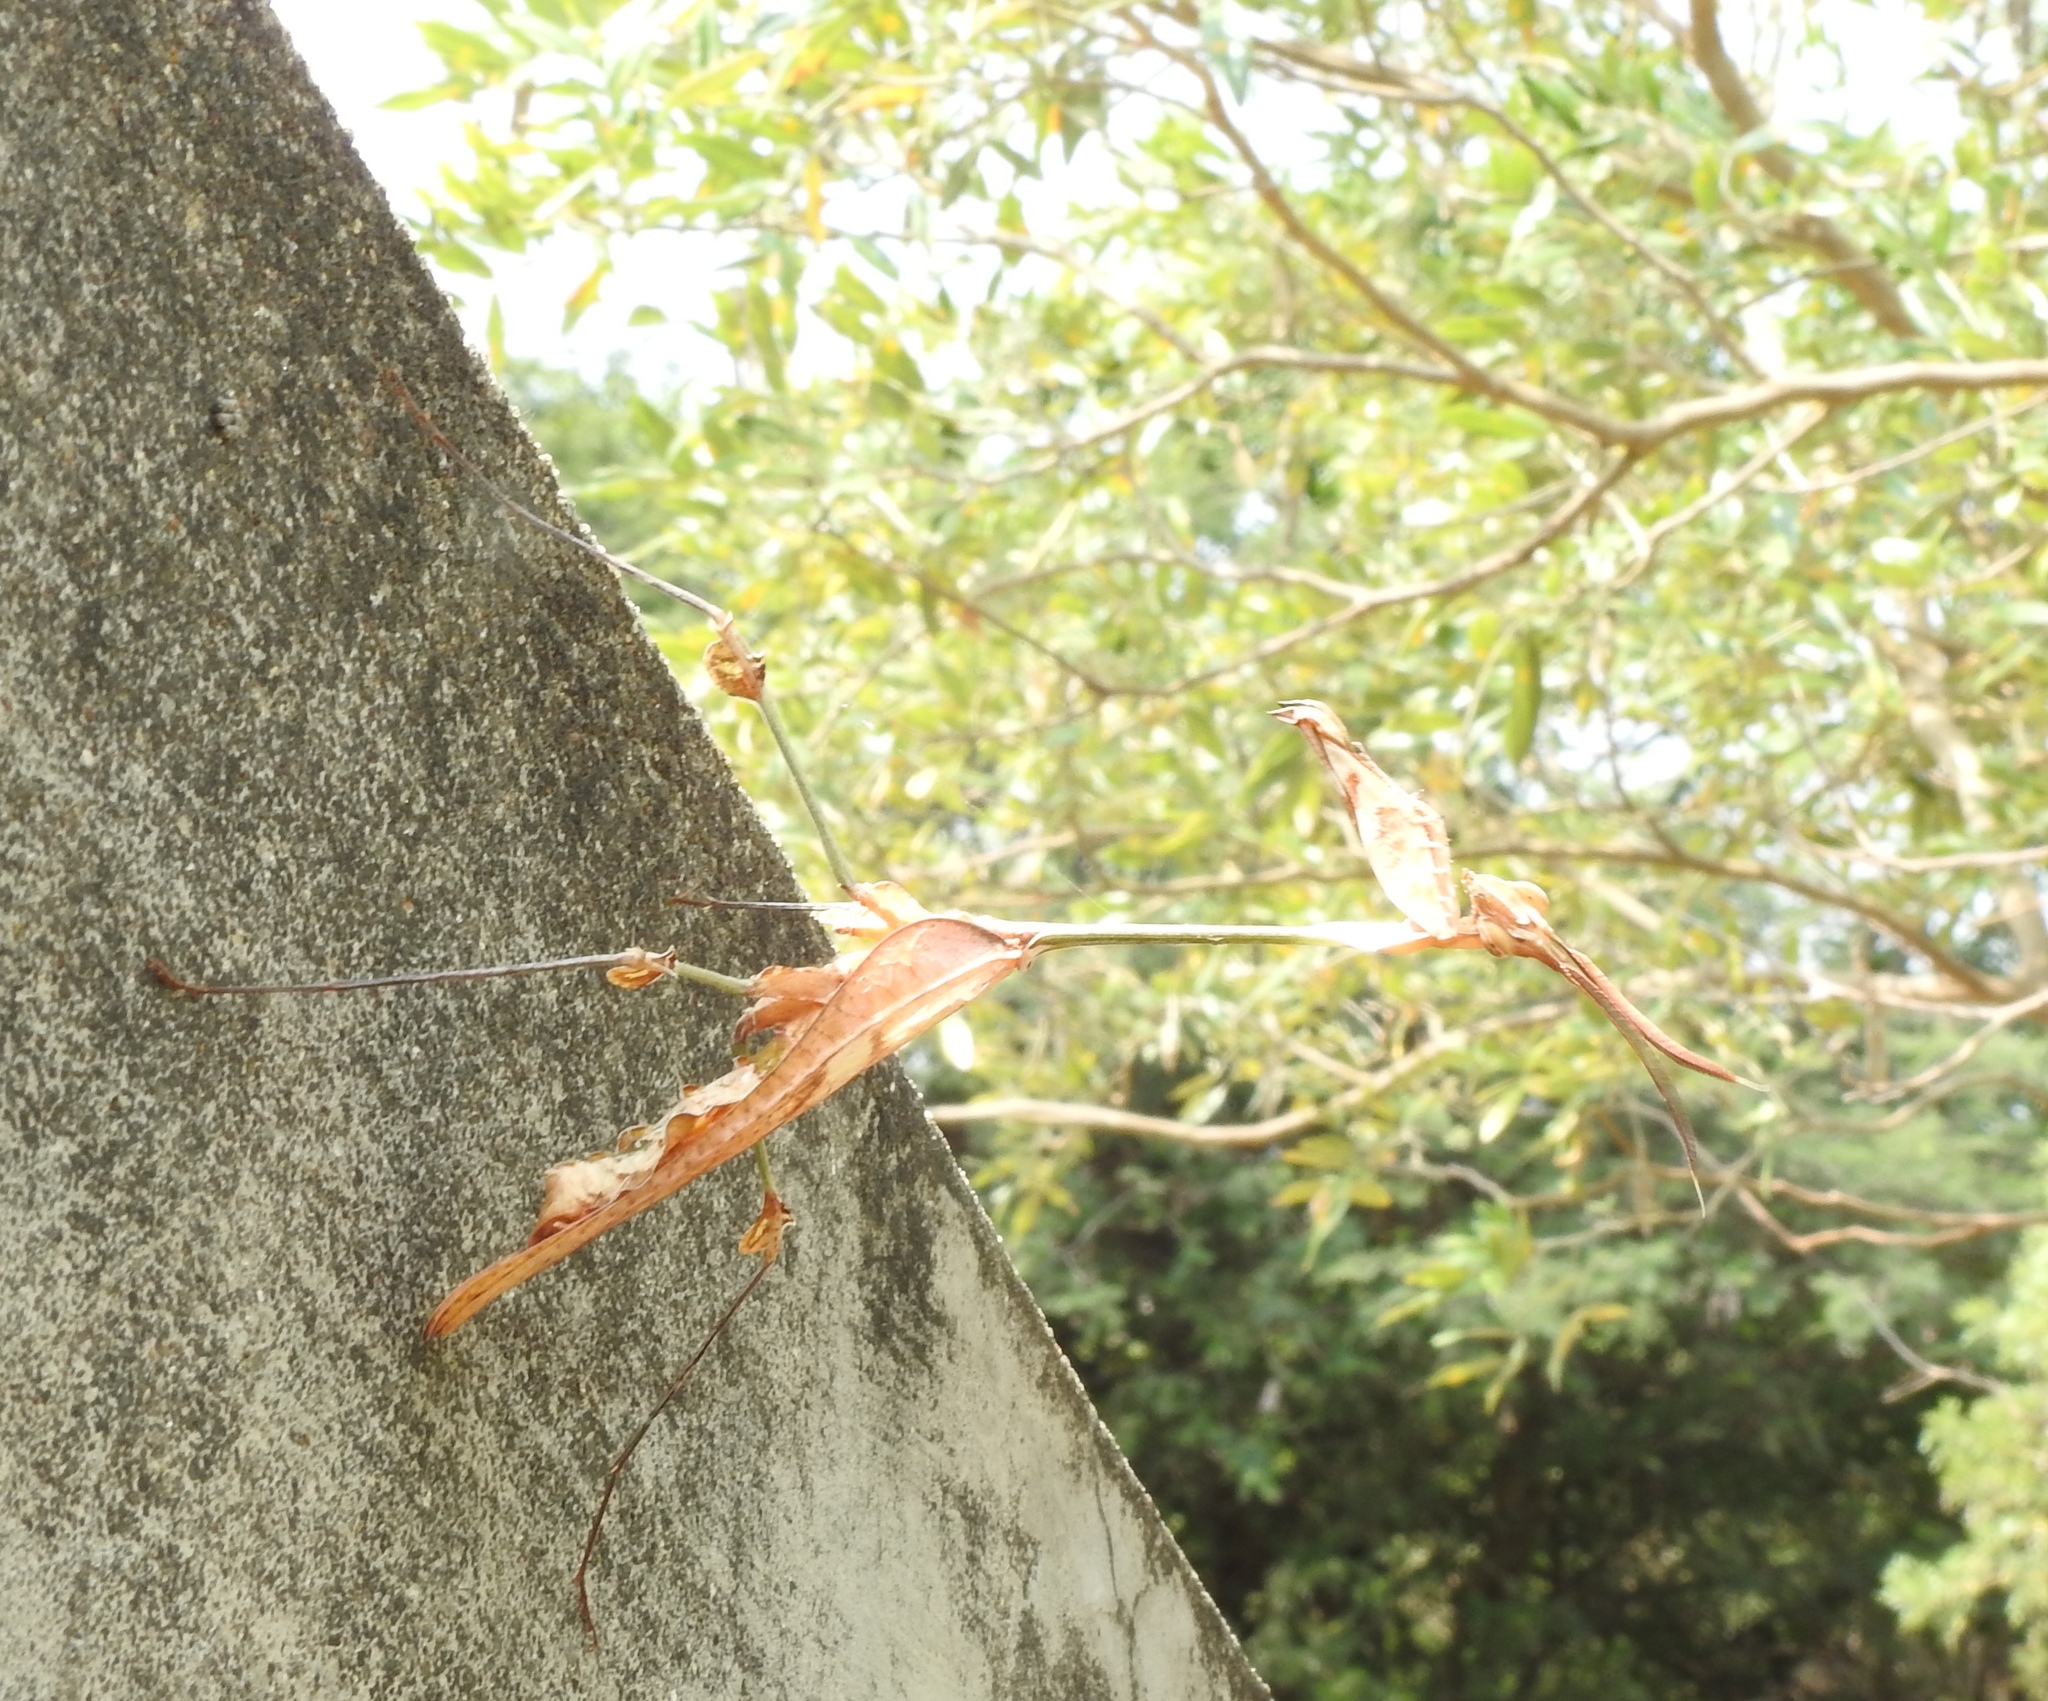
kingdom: Animalia
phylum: Arthropoda
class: Insecta
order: Mantodea
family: Empusidae
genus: Gongylus
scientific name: Gongylus gongylodes
